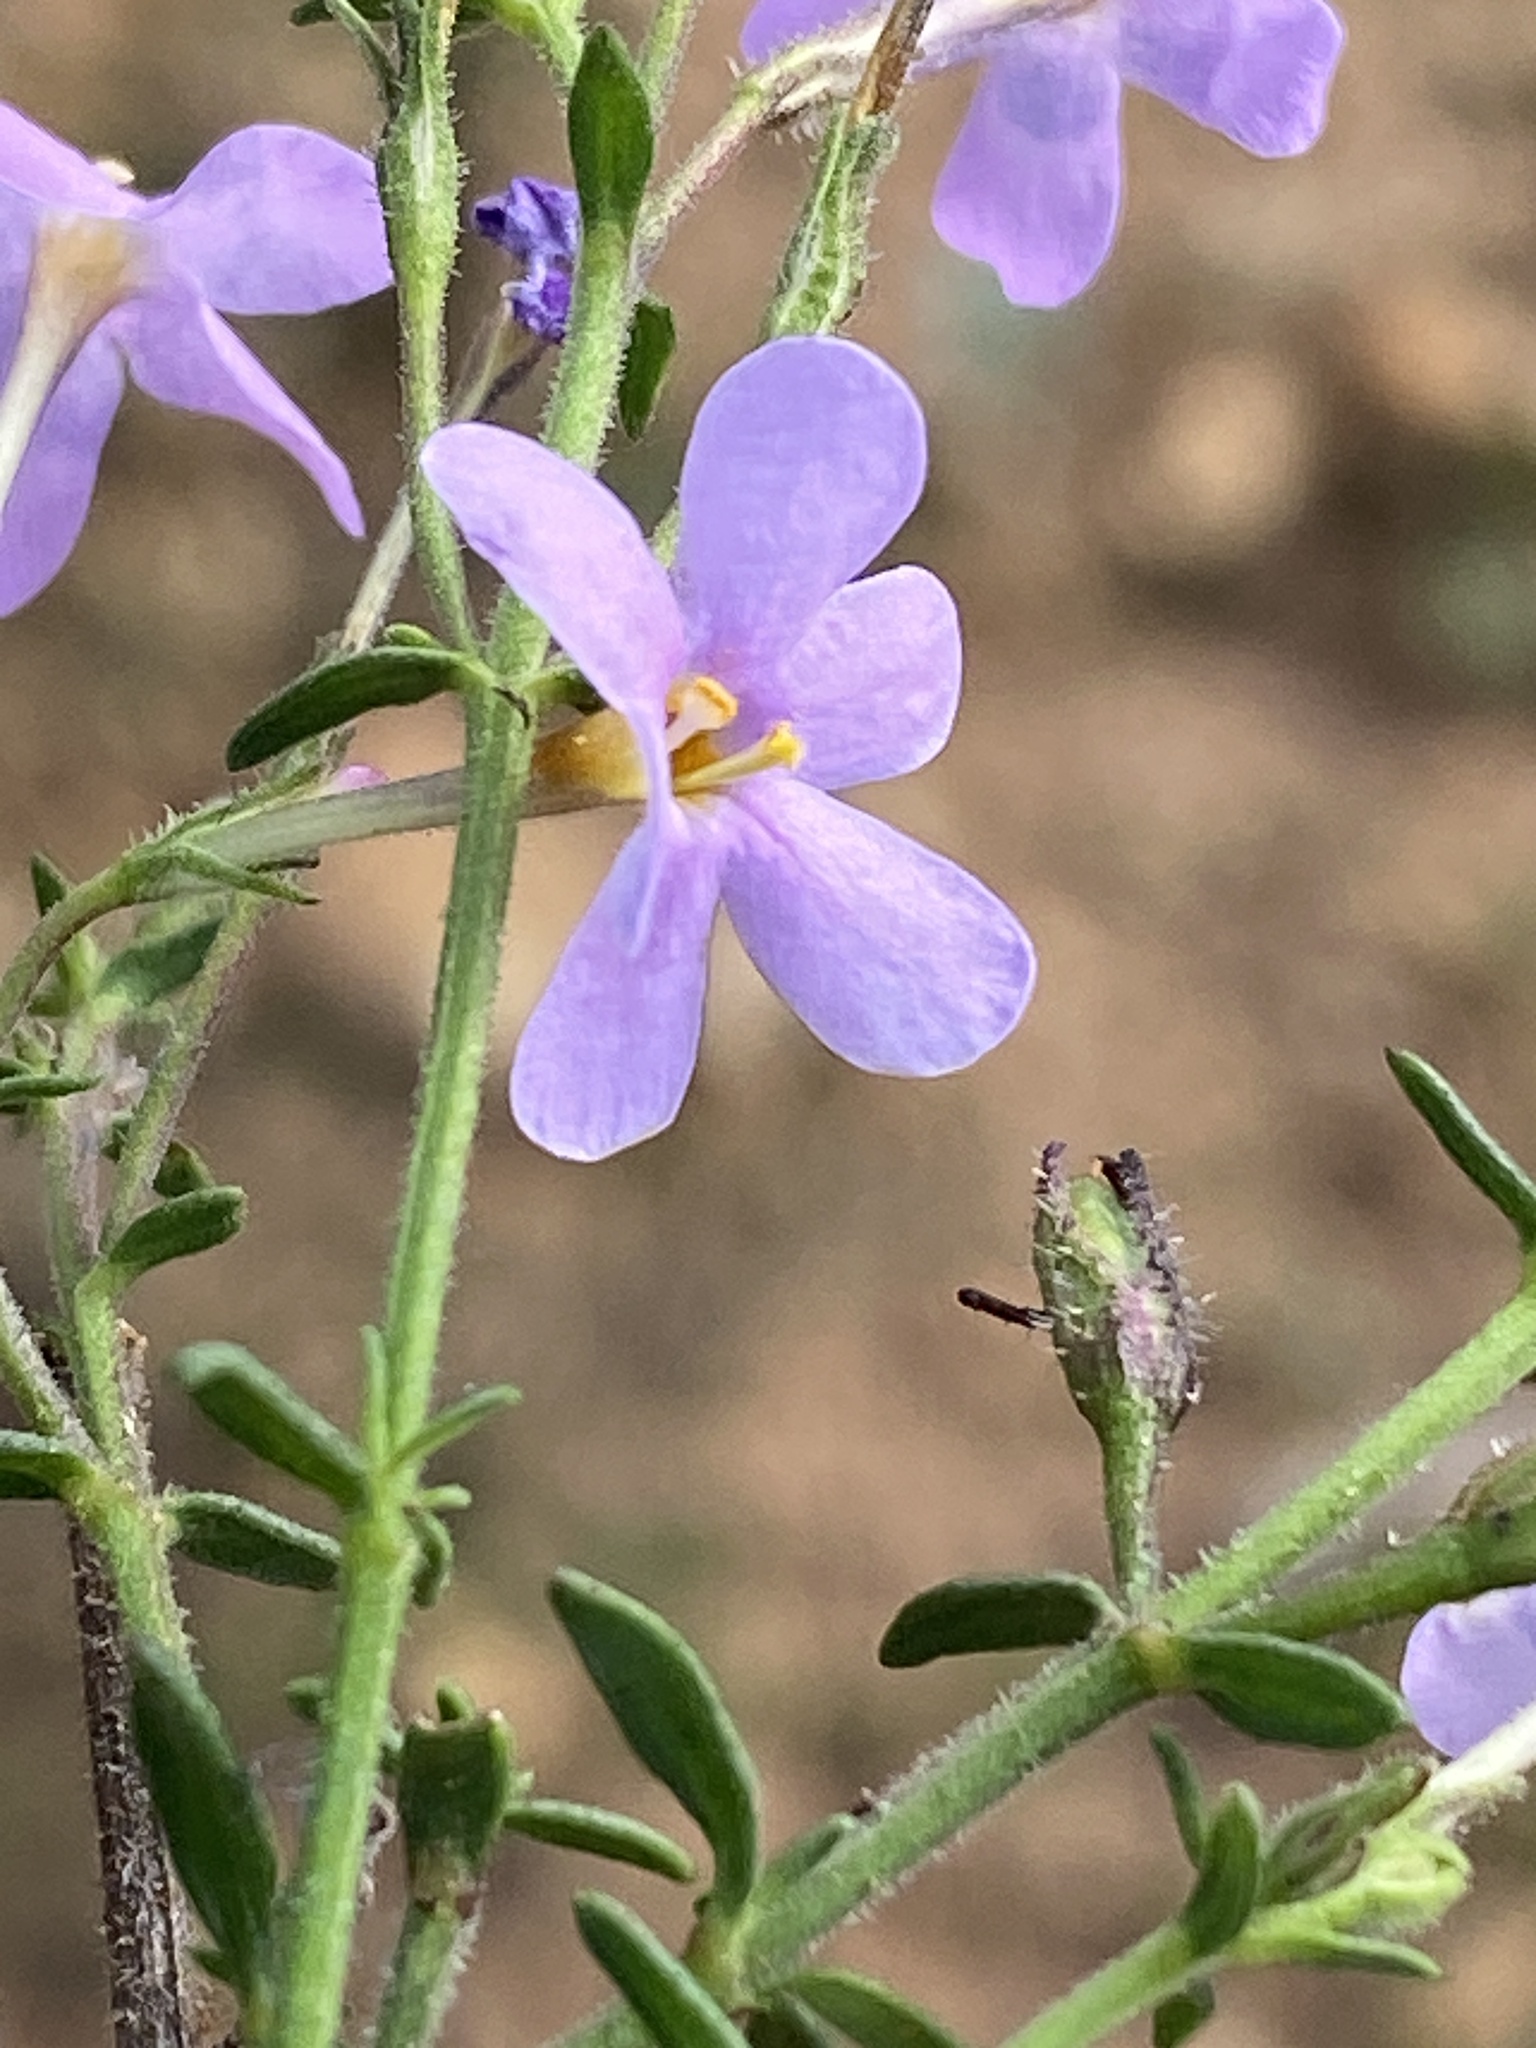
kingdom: Plantae
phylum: Tracheophyta
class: Magnoliopsida
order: Lamiales
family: Scrophulariaceae
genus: Chaenostoma
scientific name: Chaenostoma uncinatum
